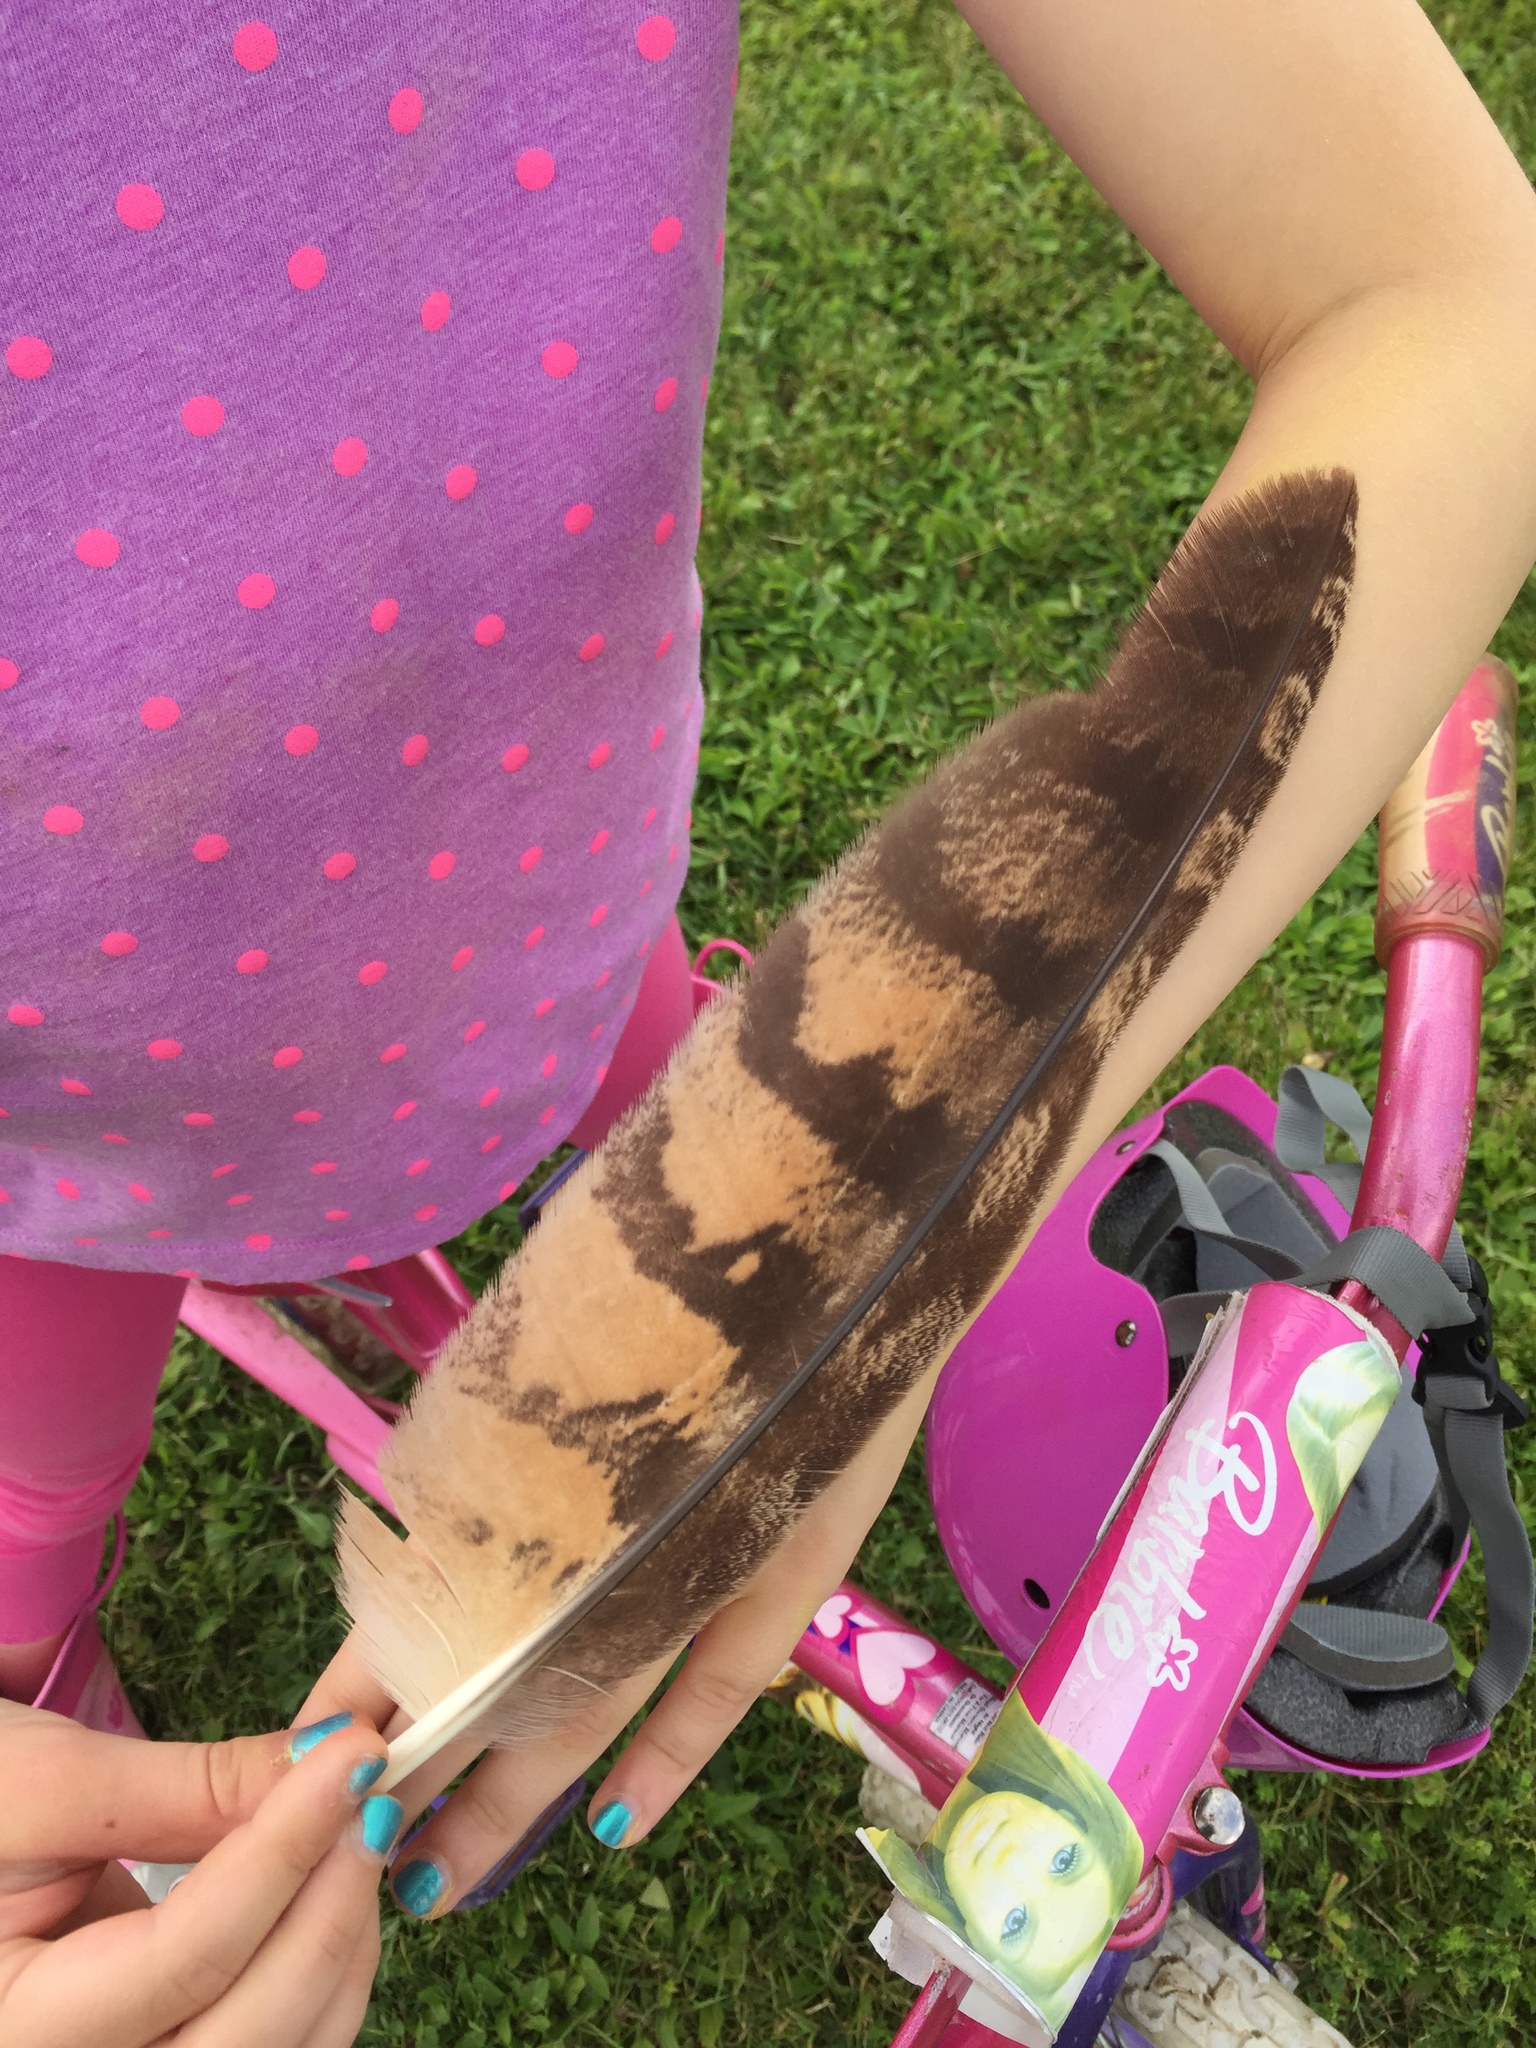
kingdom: Animalia
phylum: Chordata
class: Aves
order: Strigiformes
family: Strigidae
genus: Bubo
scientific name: Bubo virginianus
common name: Great horned owl
